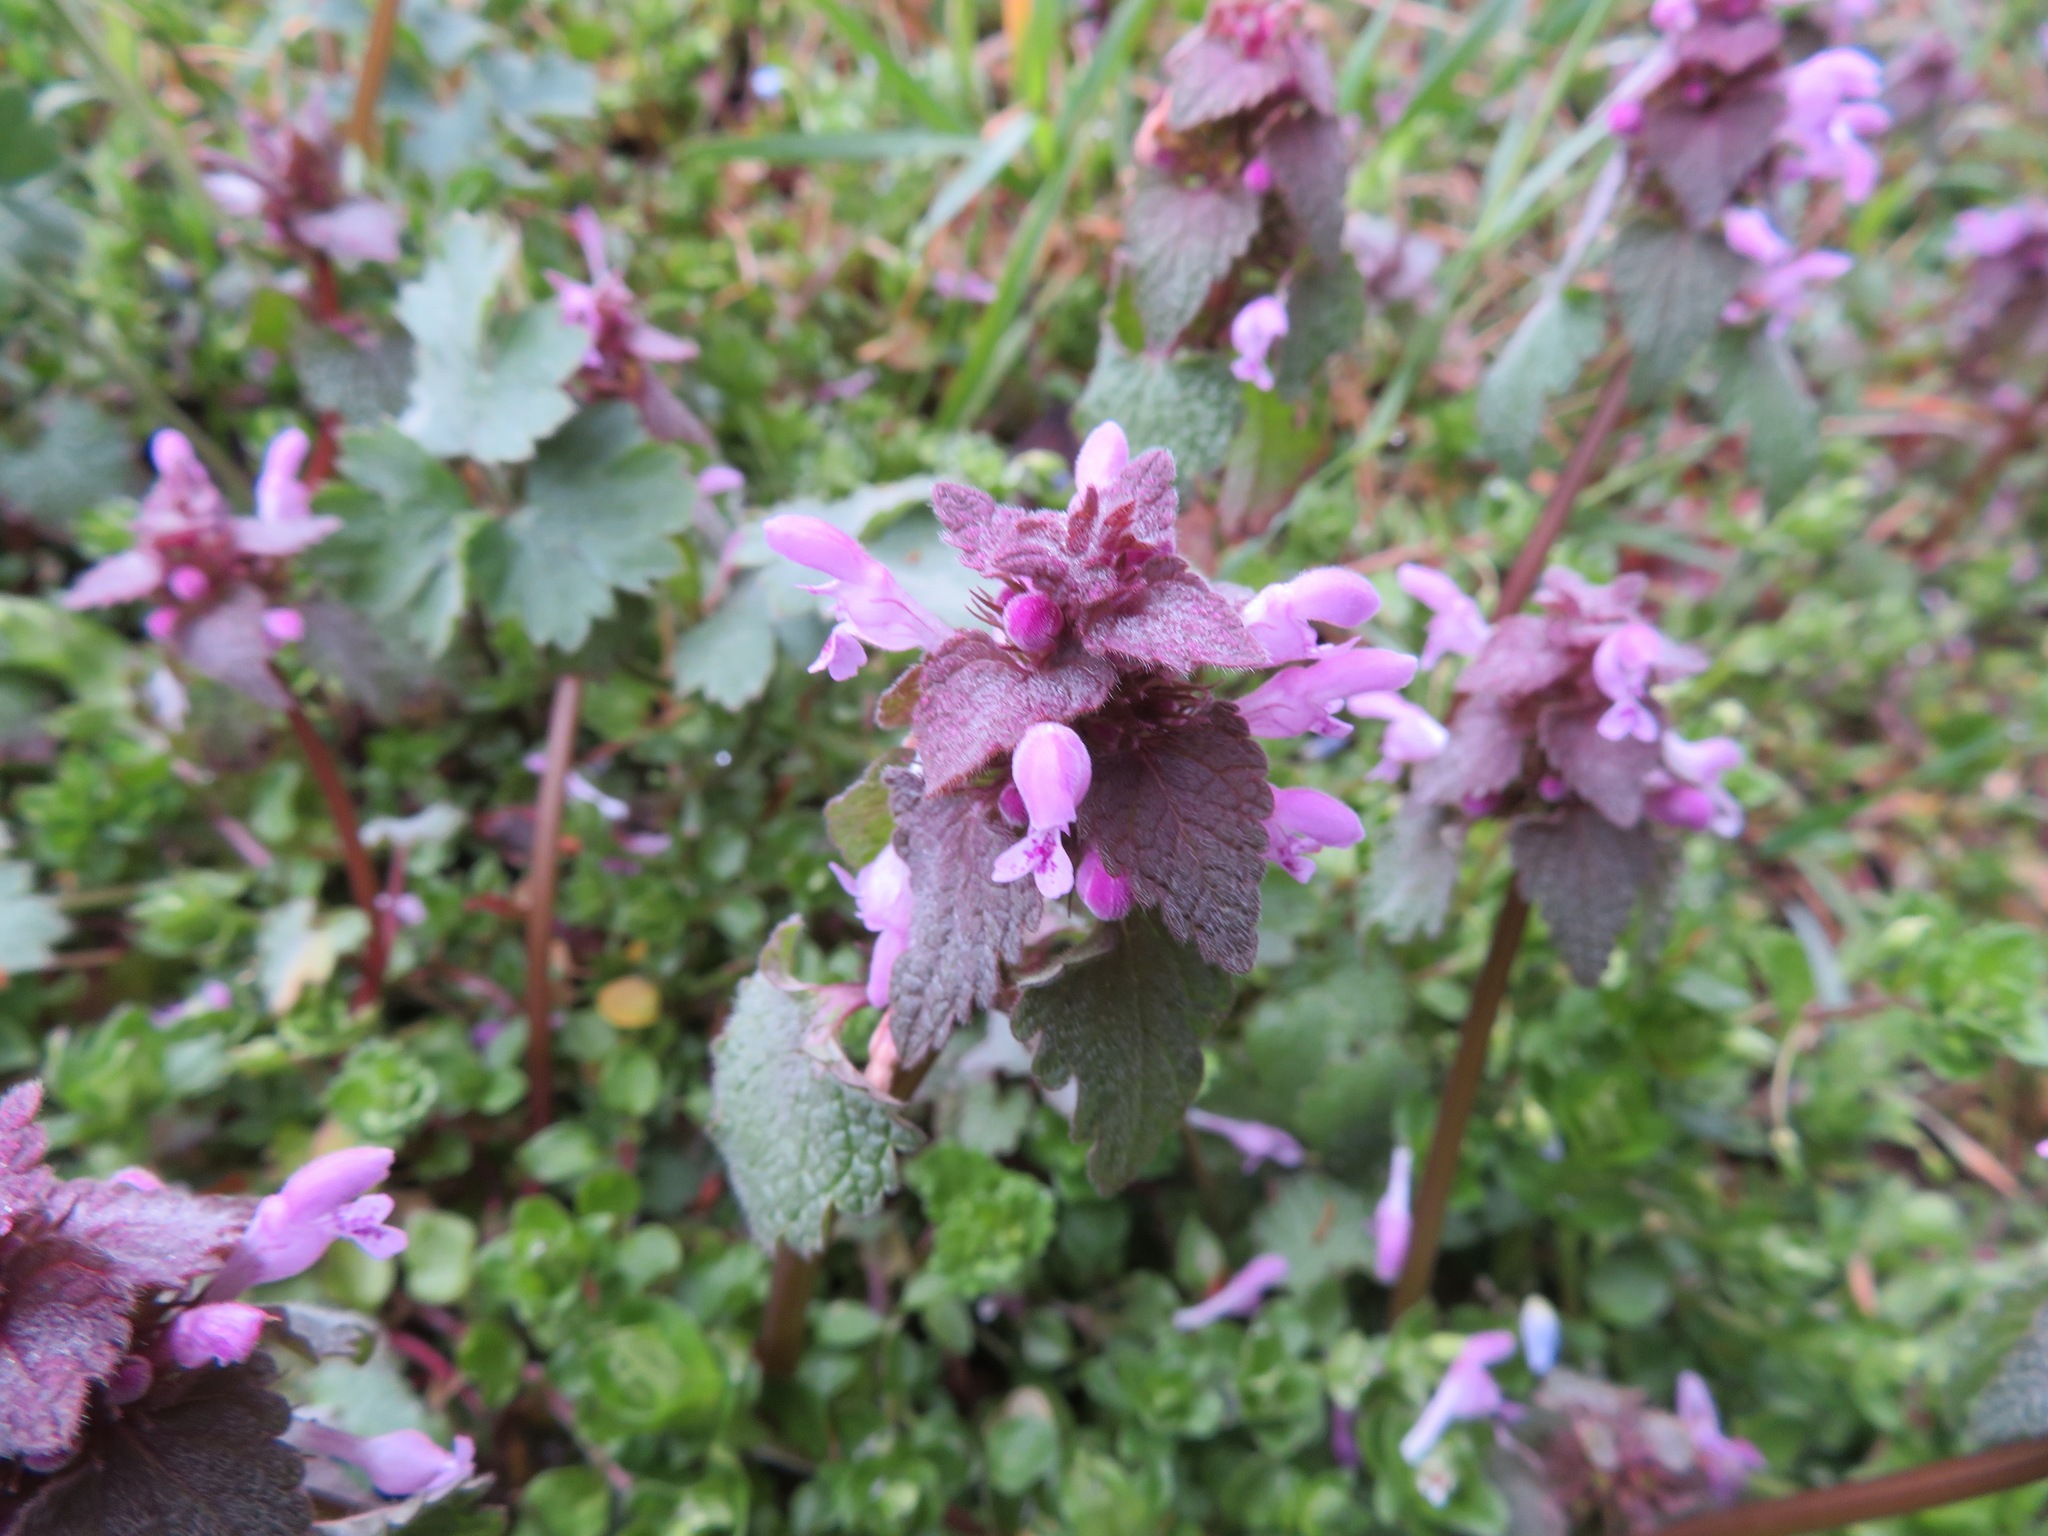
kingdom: Plantae
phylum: Tracheophyta
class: Magnoliopsida
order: Lamiales
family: Lamiaceae
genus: Lamium
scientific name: Lamium purpureum
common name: Red dead-nettle
